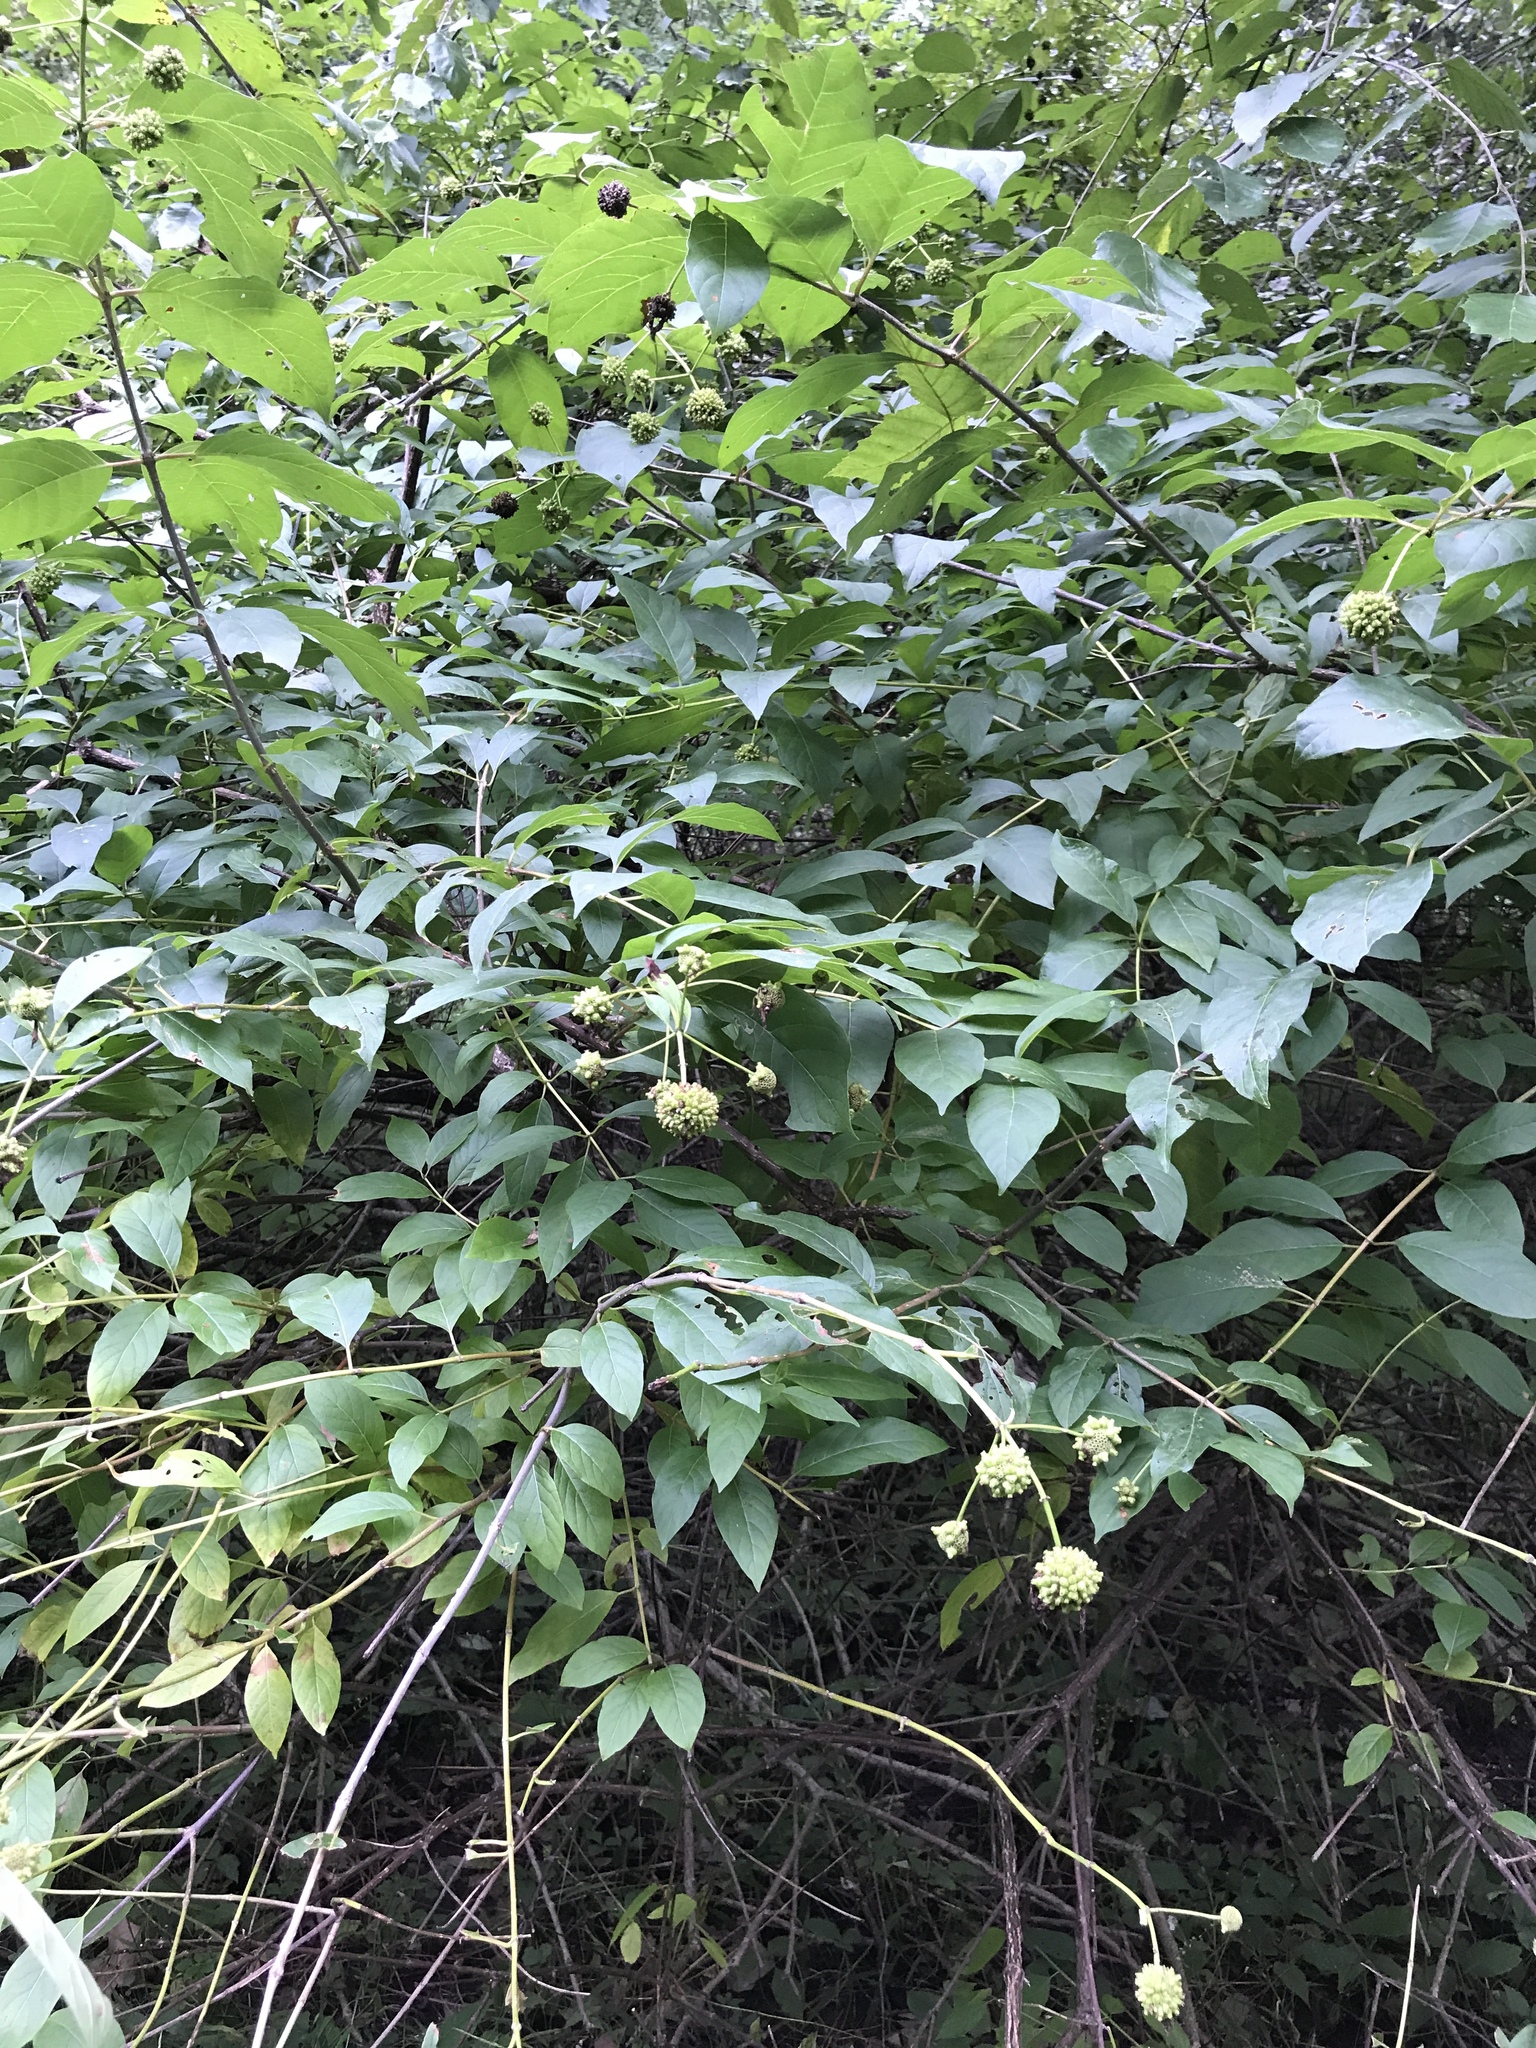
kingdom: Plantae
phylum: Tracheophyta
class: Magnoliopsida
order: Gentianales
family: Rubiaceae
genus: Cephalanthus
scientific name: Cephalanthus occidentalis
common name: Button-willow
